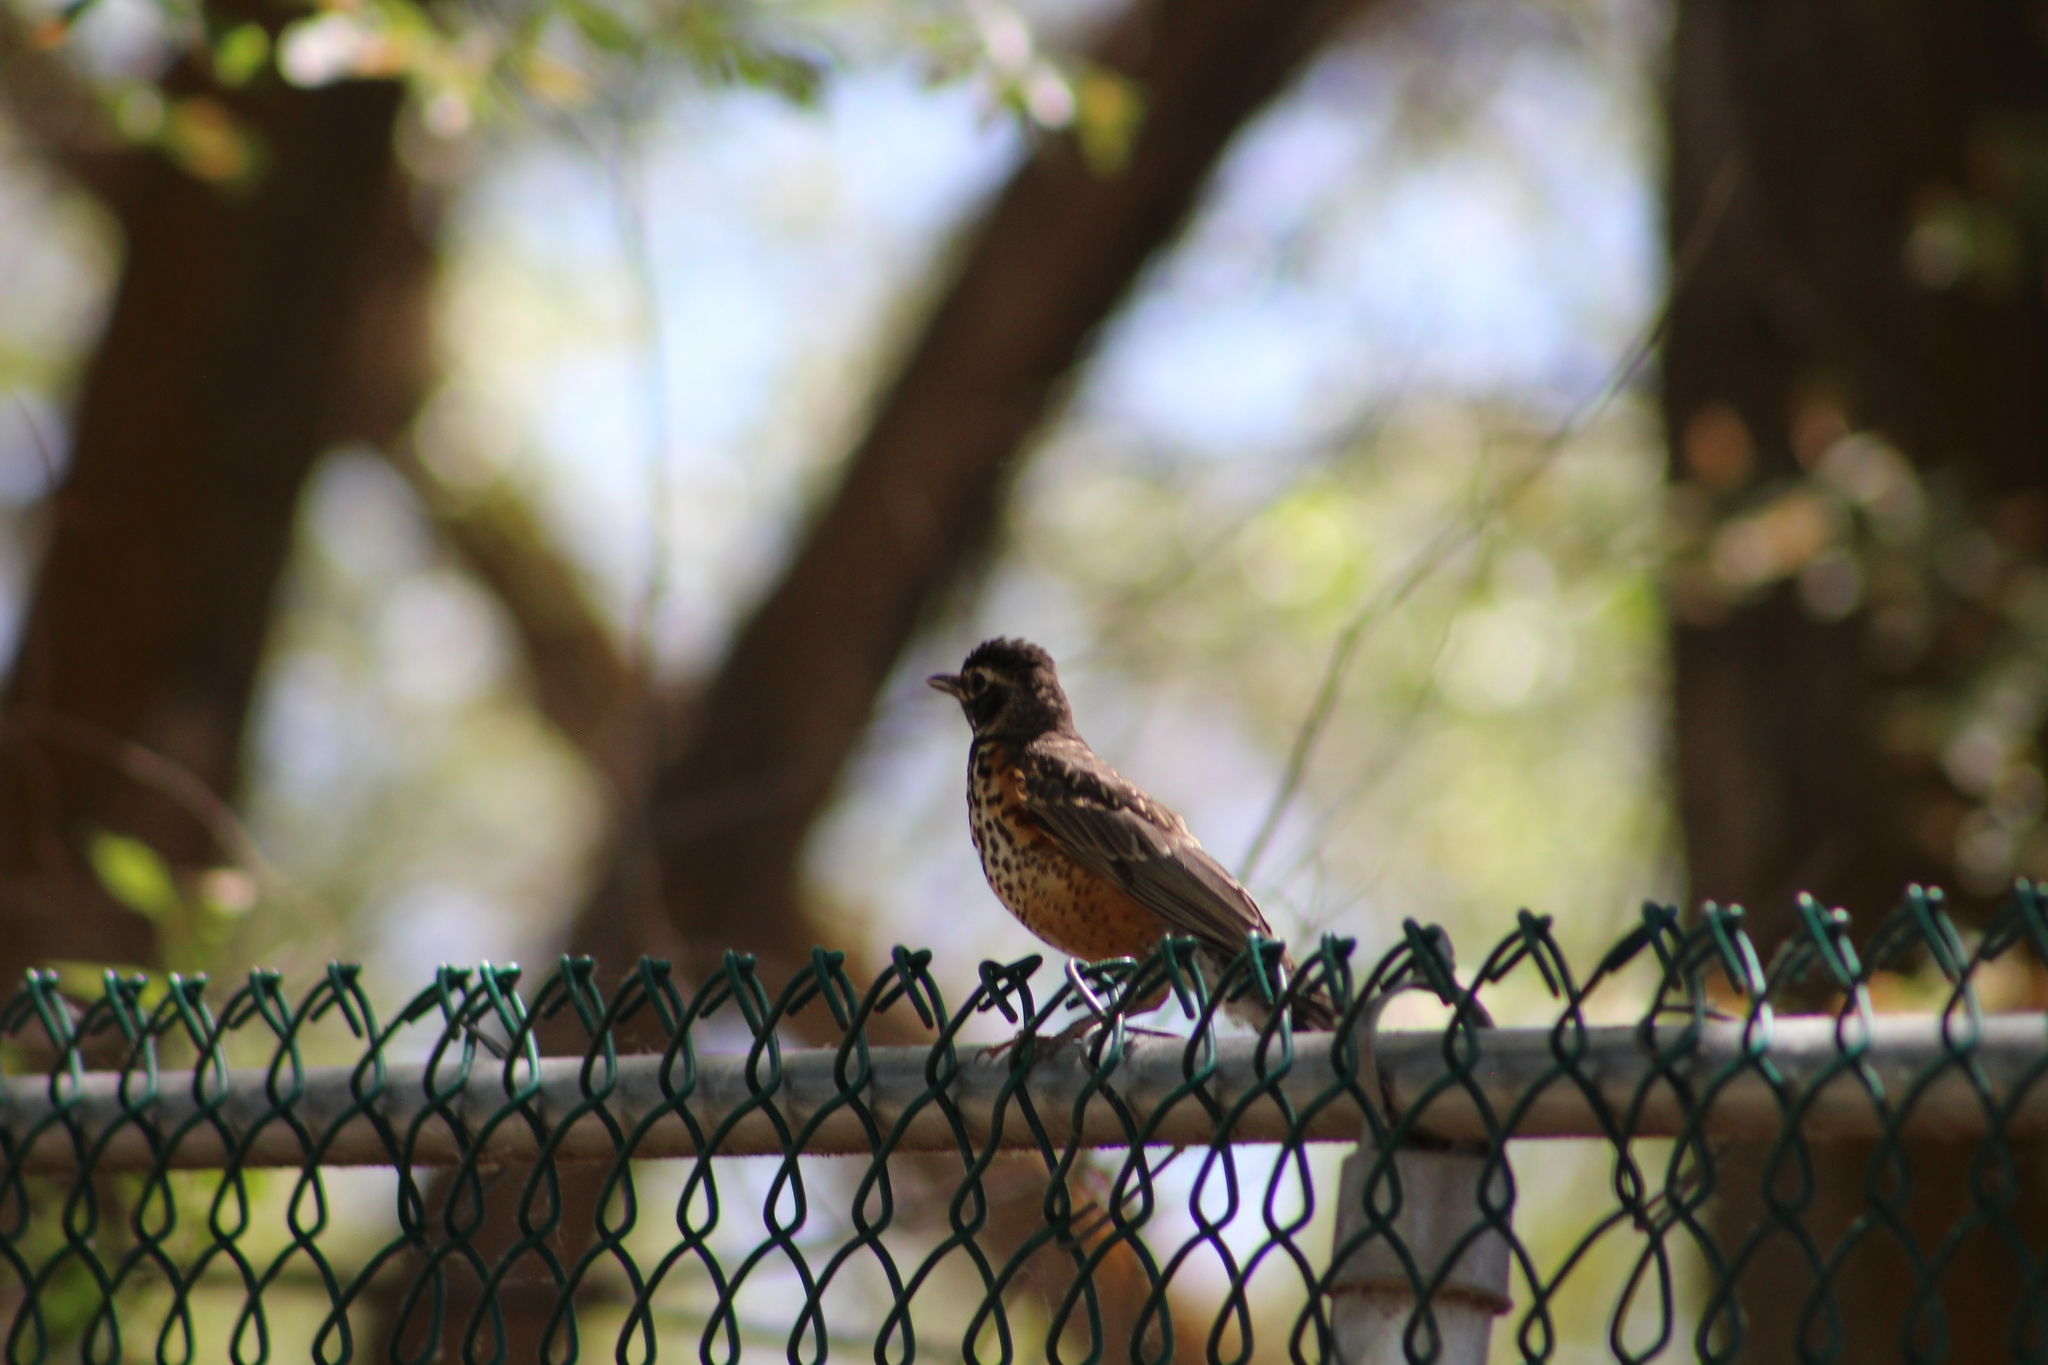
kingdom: Animalia
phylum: Chordata
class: Aves
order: Passeriformes
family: Turdidae
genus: Turdus
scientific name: Turdus migratorius
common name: American robin
